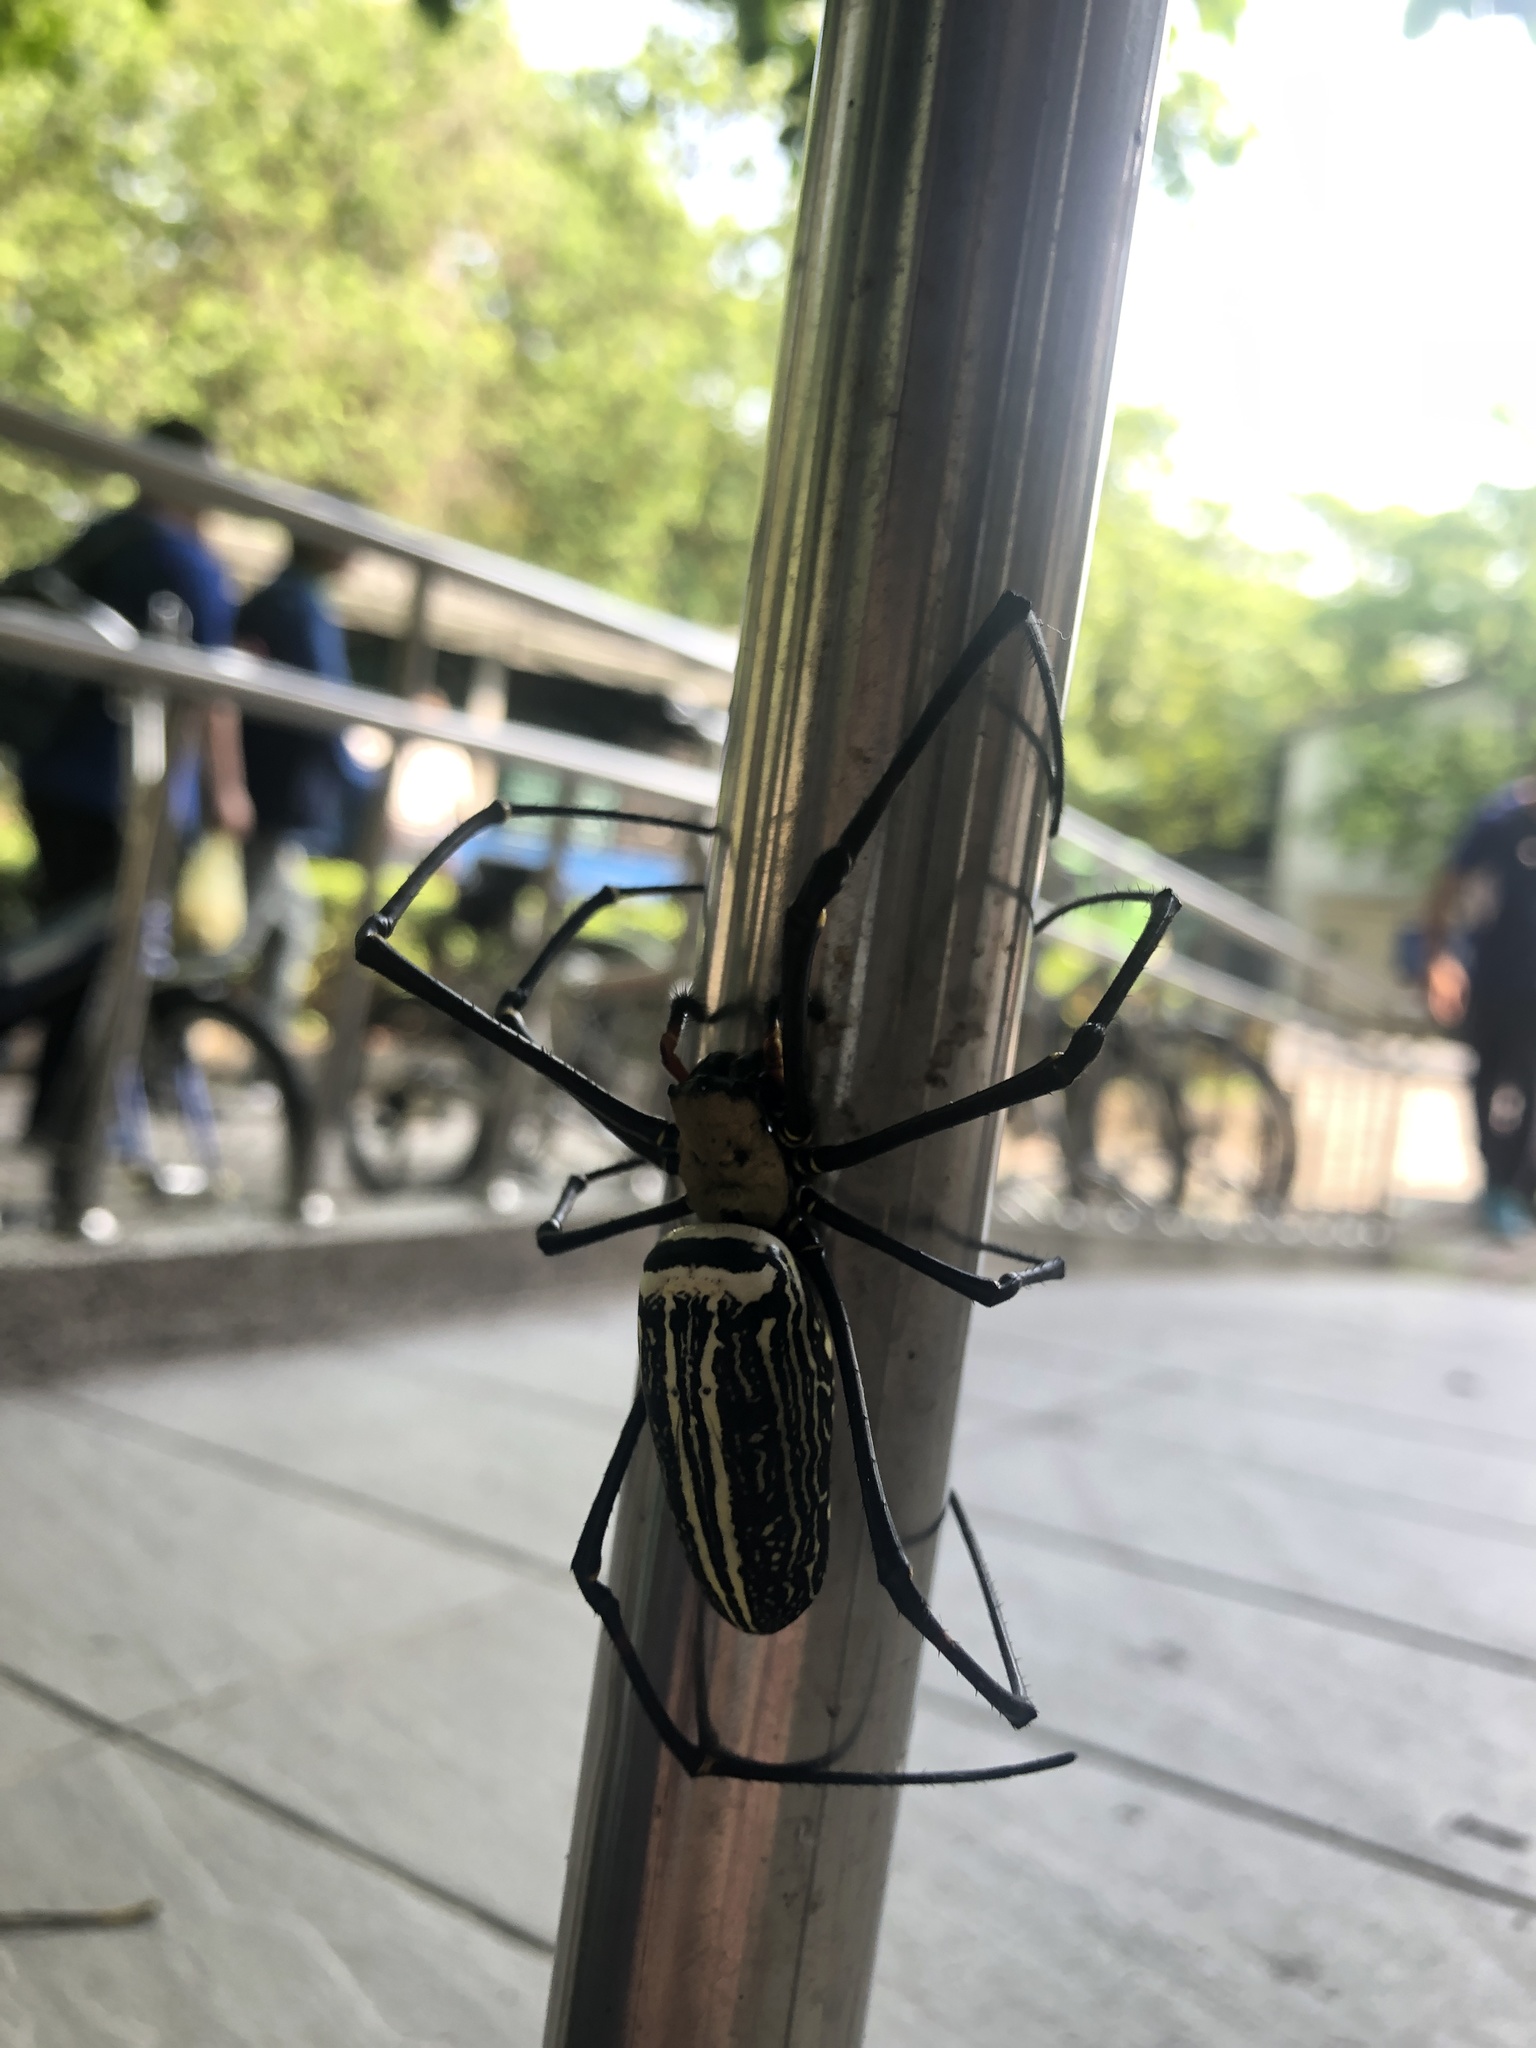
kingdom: Animalia
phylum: Arthropoda
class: Arachnida
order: Araneae
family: Araneidae
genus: Nephila
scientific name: Nephila pilipes
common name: Giant golden orb weaver
